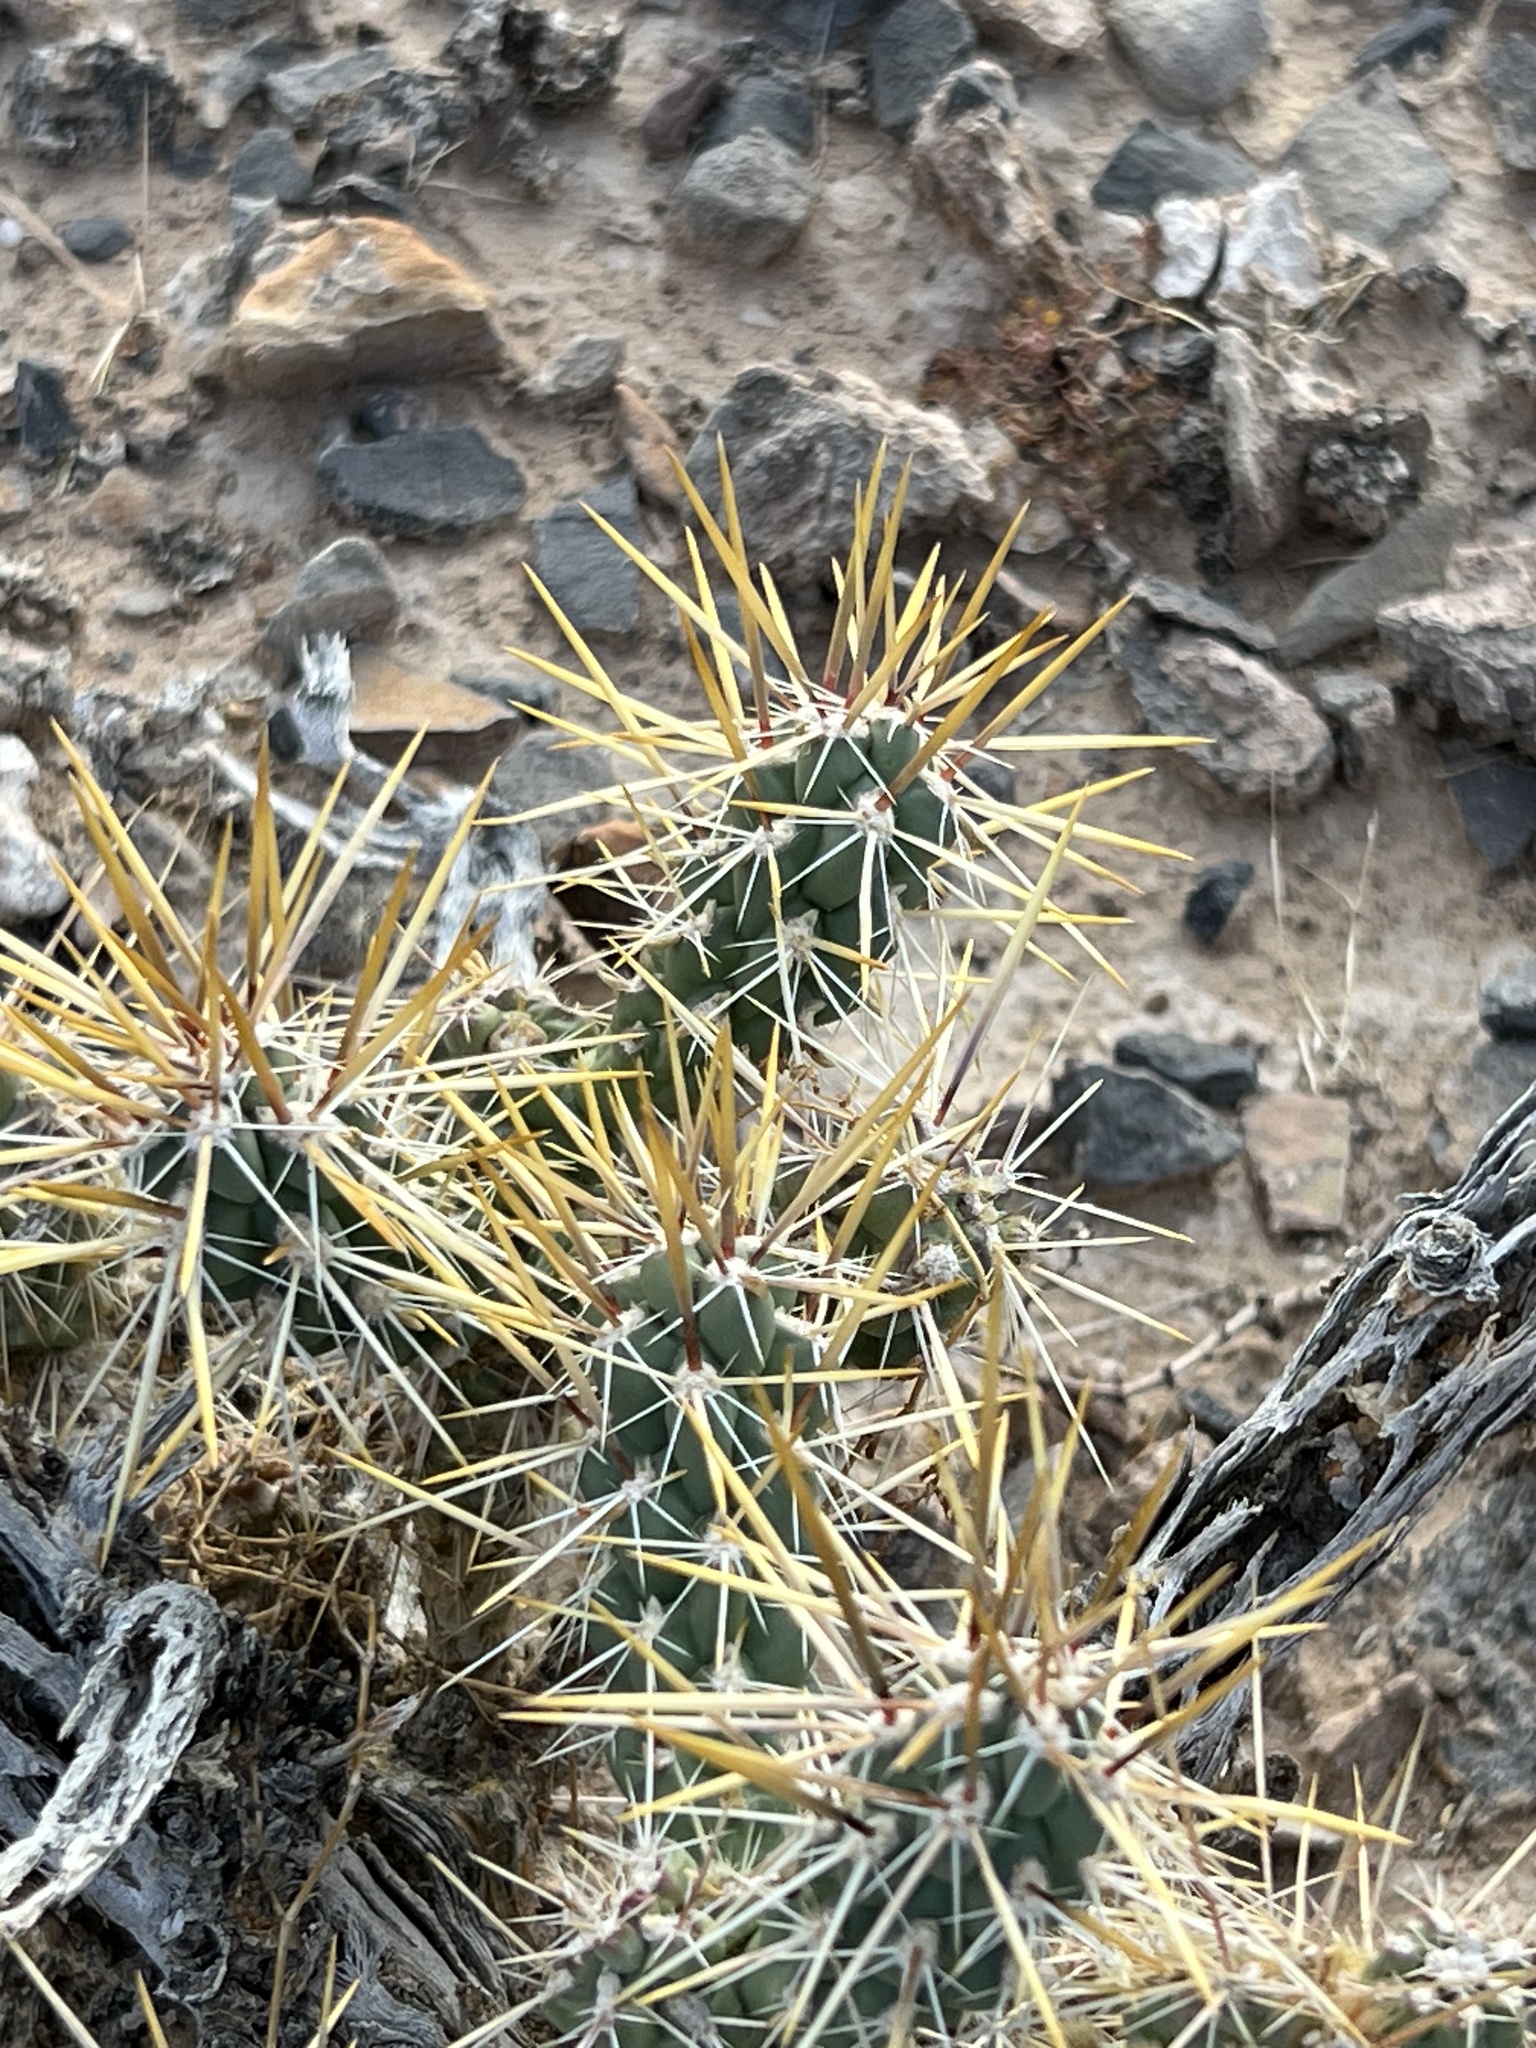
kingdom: Plantae
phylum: Tracheophyta
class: Magnoliopsida
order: Caryophyllales
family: Cactaceae
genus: Cylindropuntia
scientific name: Cylindropuntia echinocarpa
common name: Ground cholla
